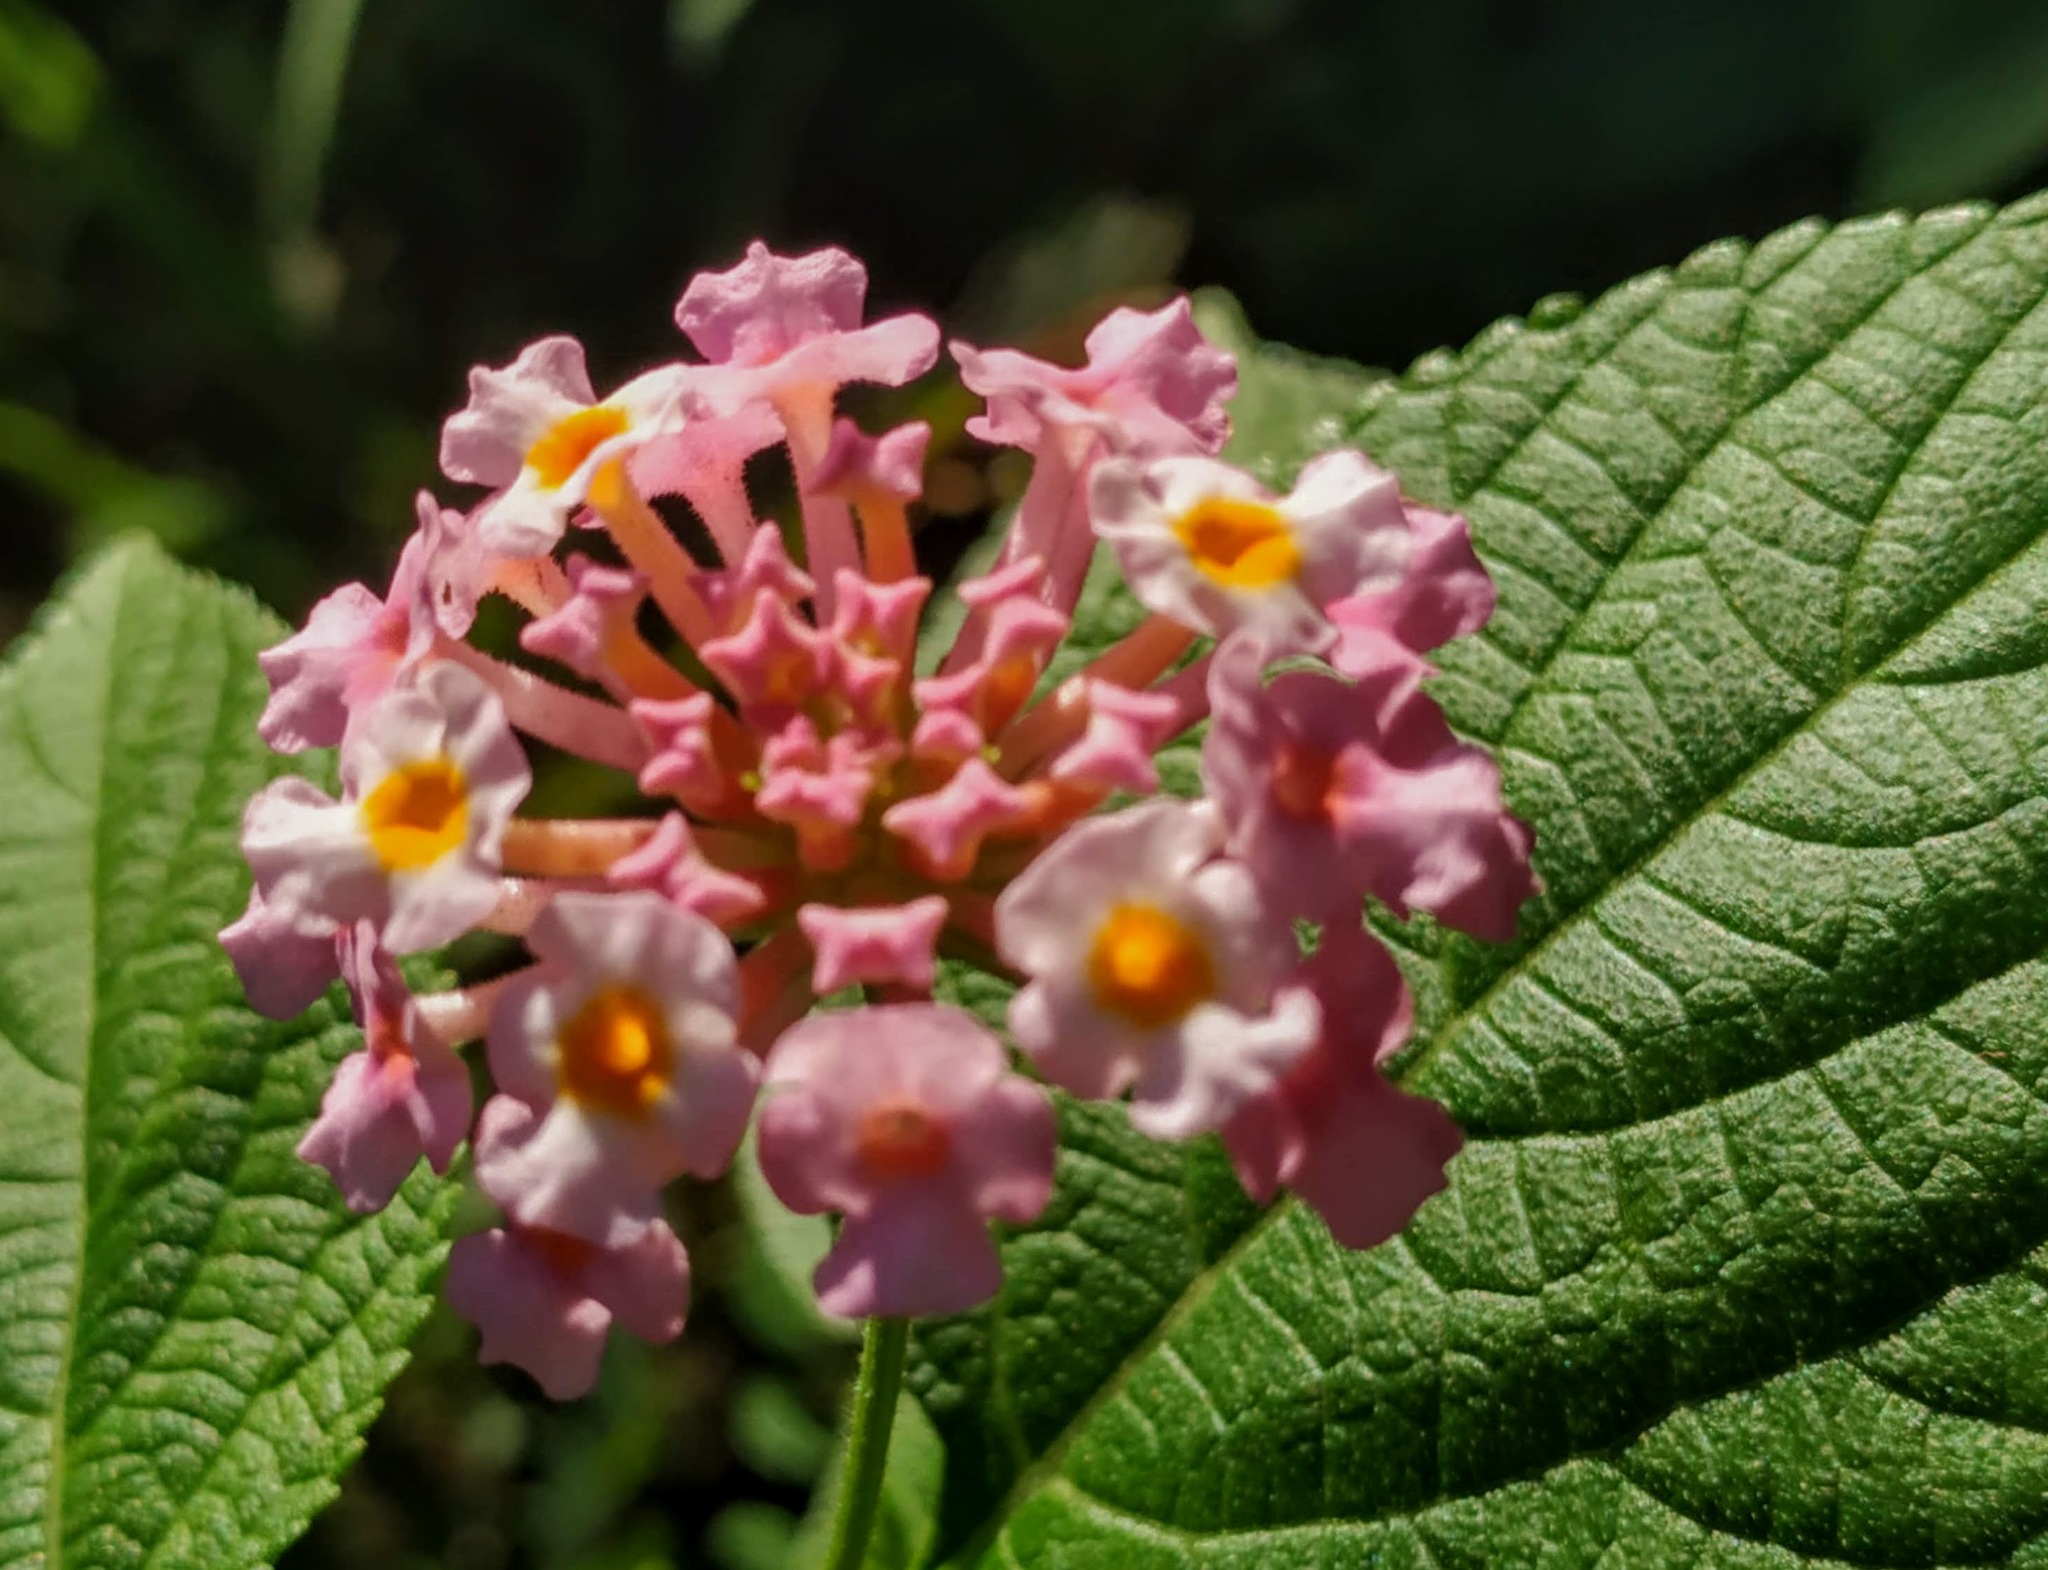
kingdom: Plantae
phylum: Tracheophyta
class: Magnoliopsida
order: Lamiales
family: Verbenaceae
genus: Lantana
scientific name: Lantana camara
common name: Lantana
